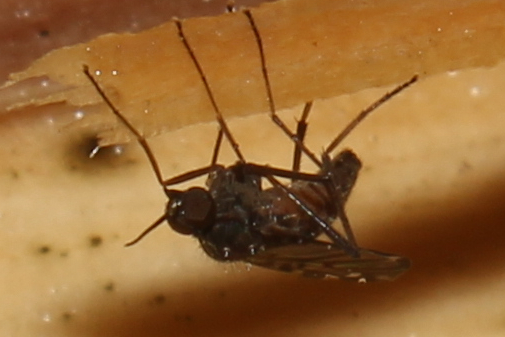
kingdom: Animalia
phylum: Arthropoda
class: Insecta
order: Diptera
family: Anisopodidae
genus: Sylvicola
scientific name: Sylvicola alternata
